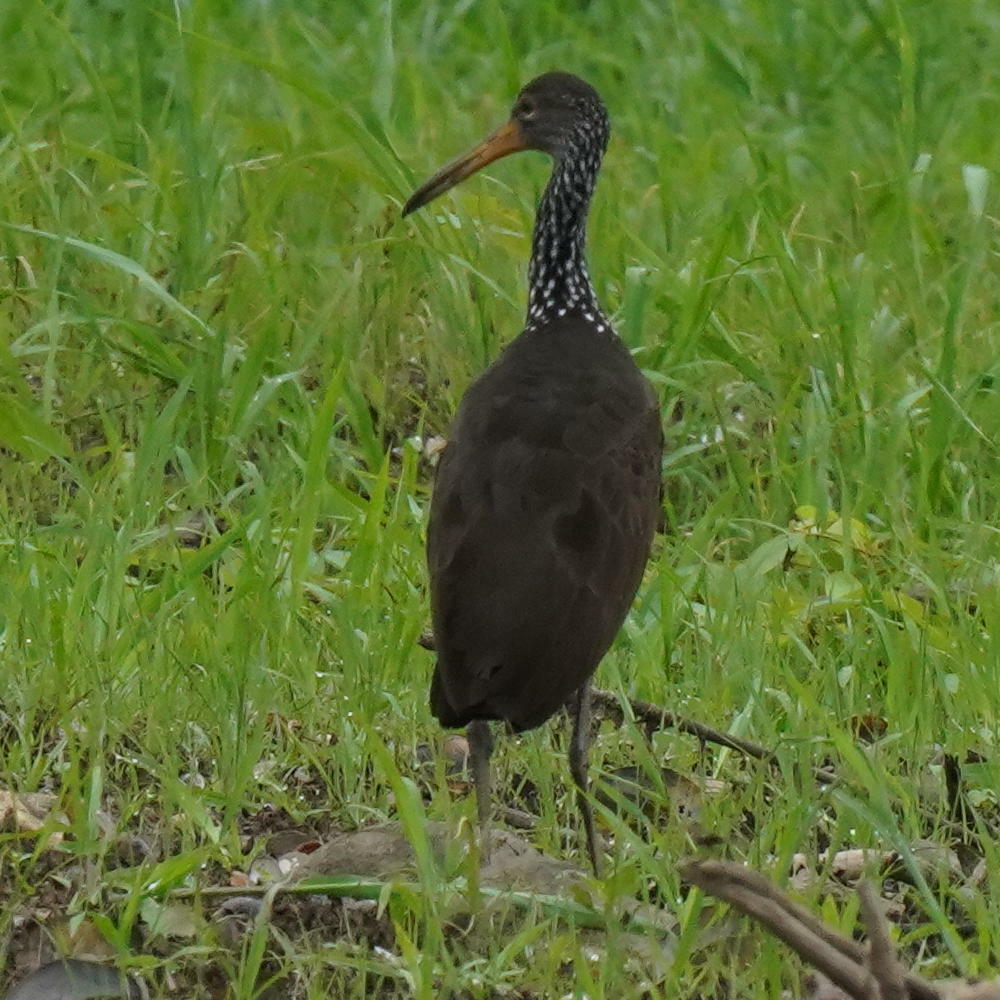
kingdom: Animalia
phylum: Chordata
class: Aves
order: Gruiformes
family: Aramidae
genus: Aramus
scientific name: Aramus guarauna
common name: Limpkin
